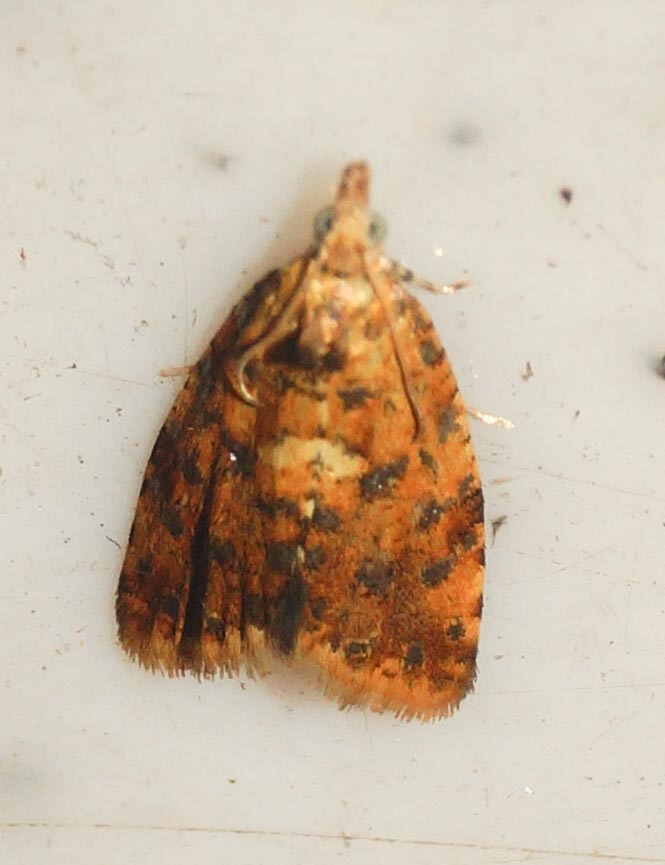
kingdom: Animalia
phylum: Arthropoda
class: Insecta
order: Lepidoptera
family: Tortricidae
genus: Pseudargyrotoza
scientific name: Pseudargyrotoza conwagana
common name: Yellow-spot twist
